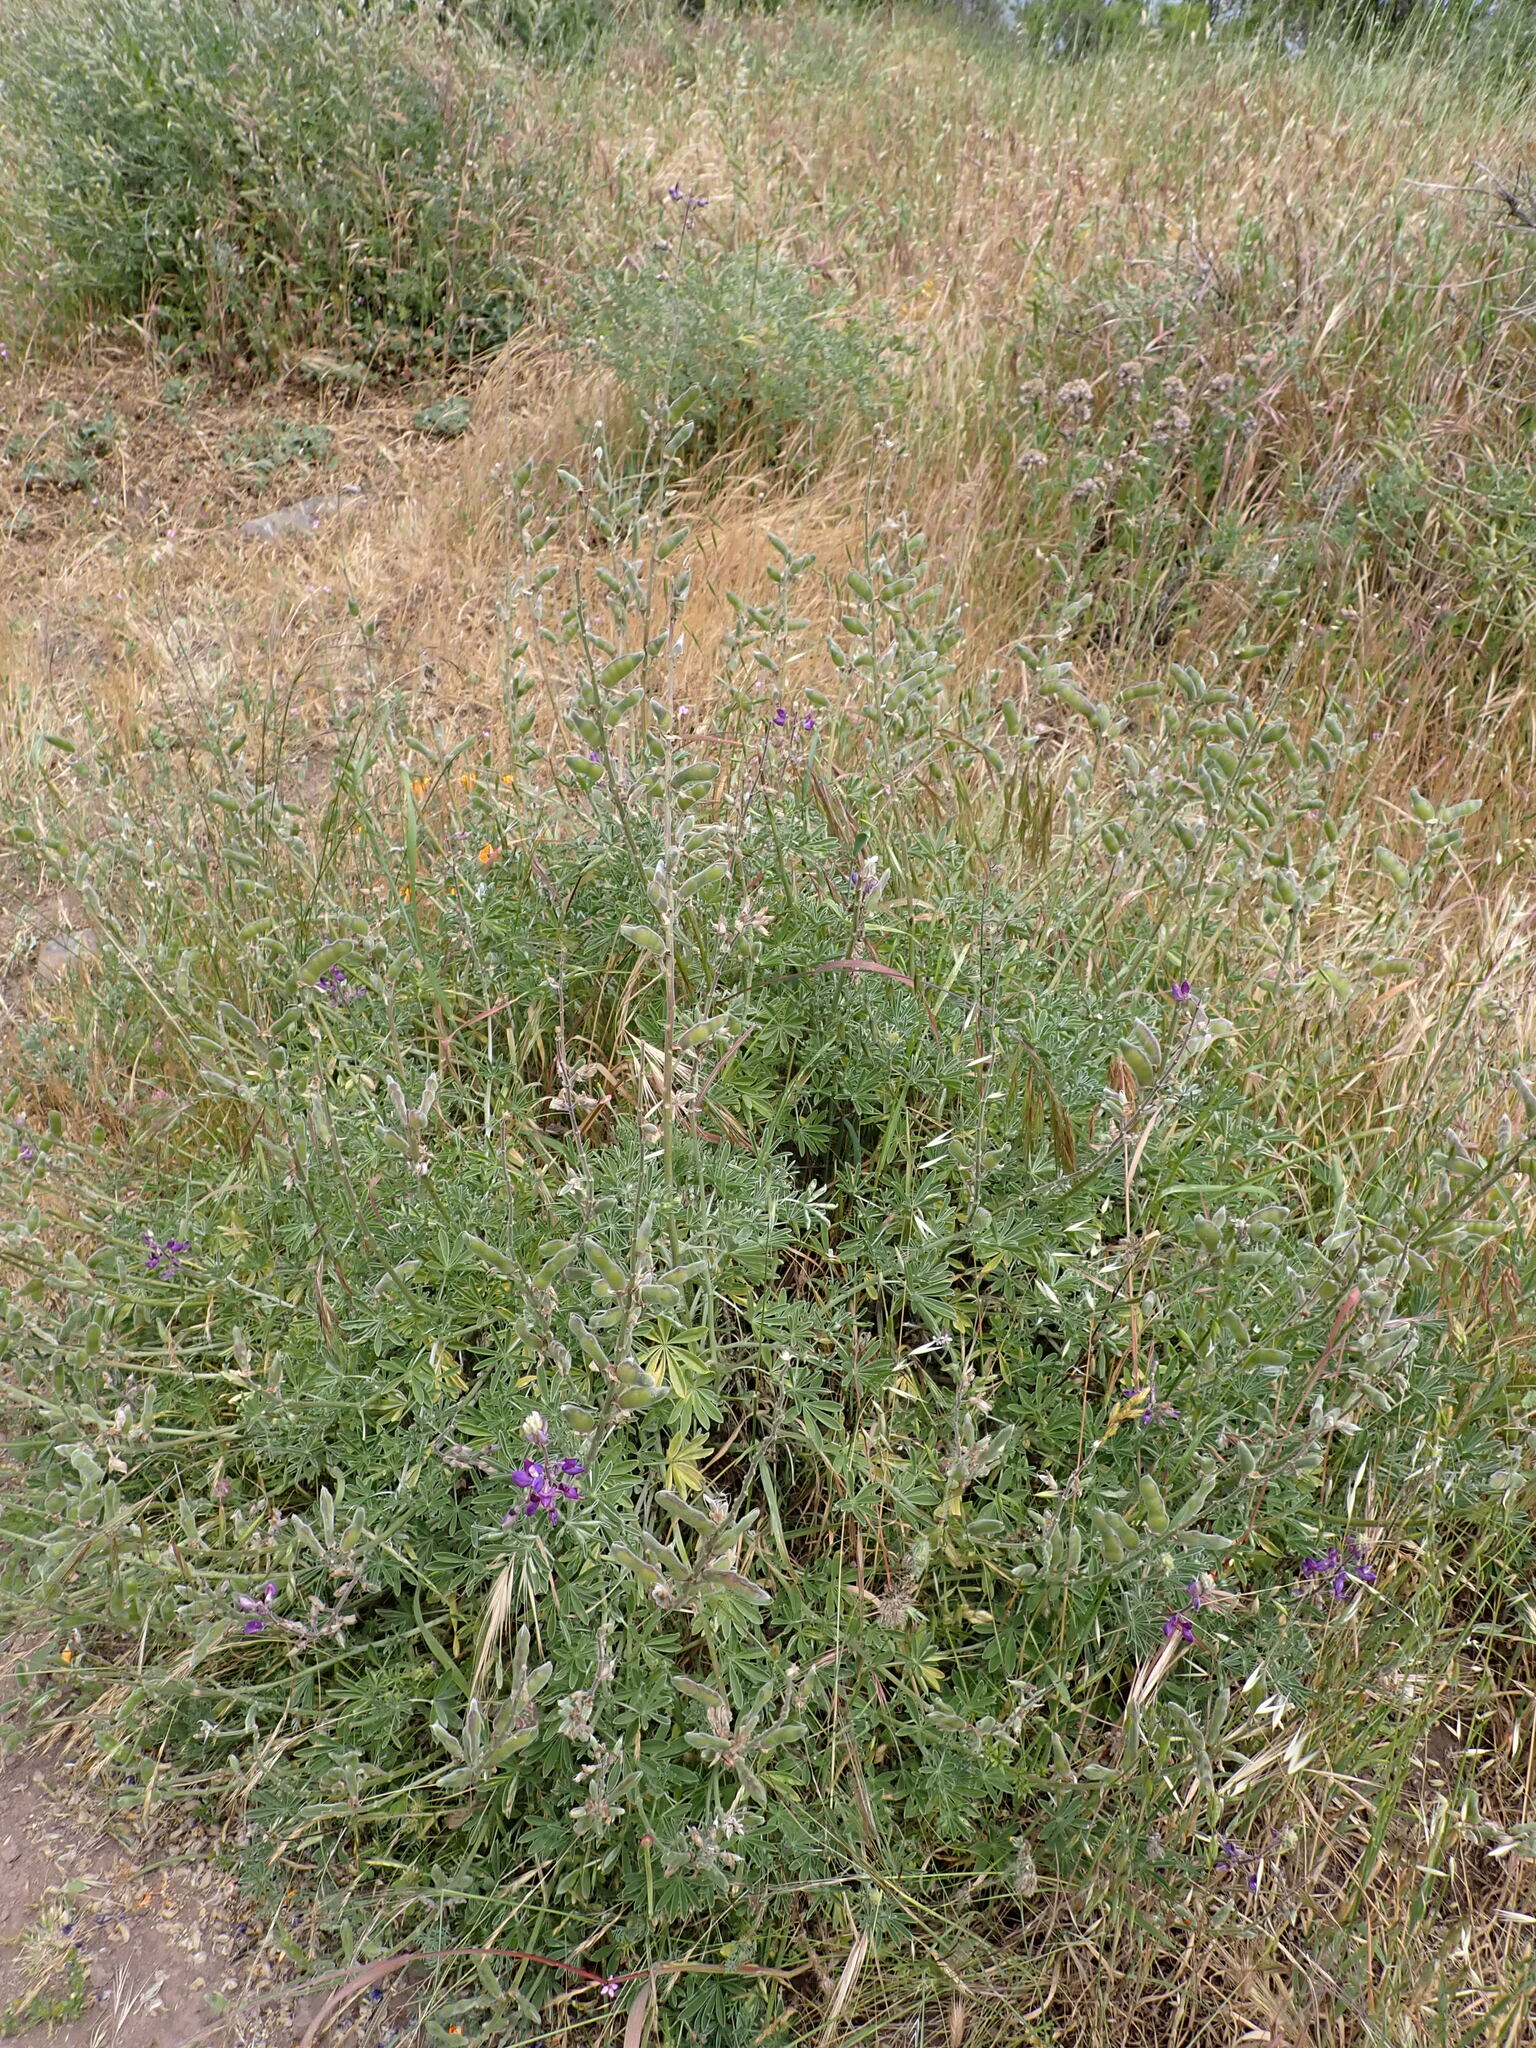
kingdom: Plantae
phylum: Tracheophyta
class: Magnoliopsida
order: Fabales
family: Fabaceae
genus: Lupinus
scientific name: Lupinus albifrons
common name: Foothill lupine
